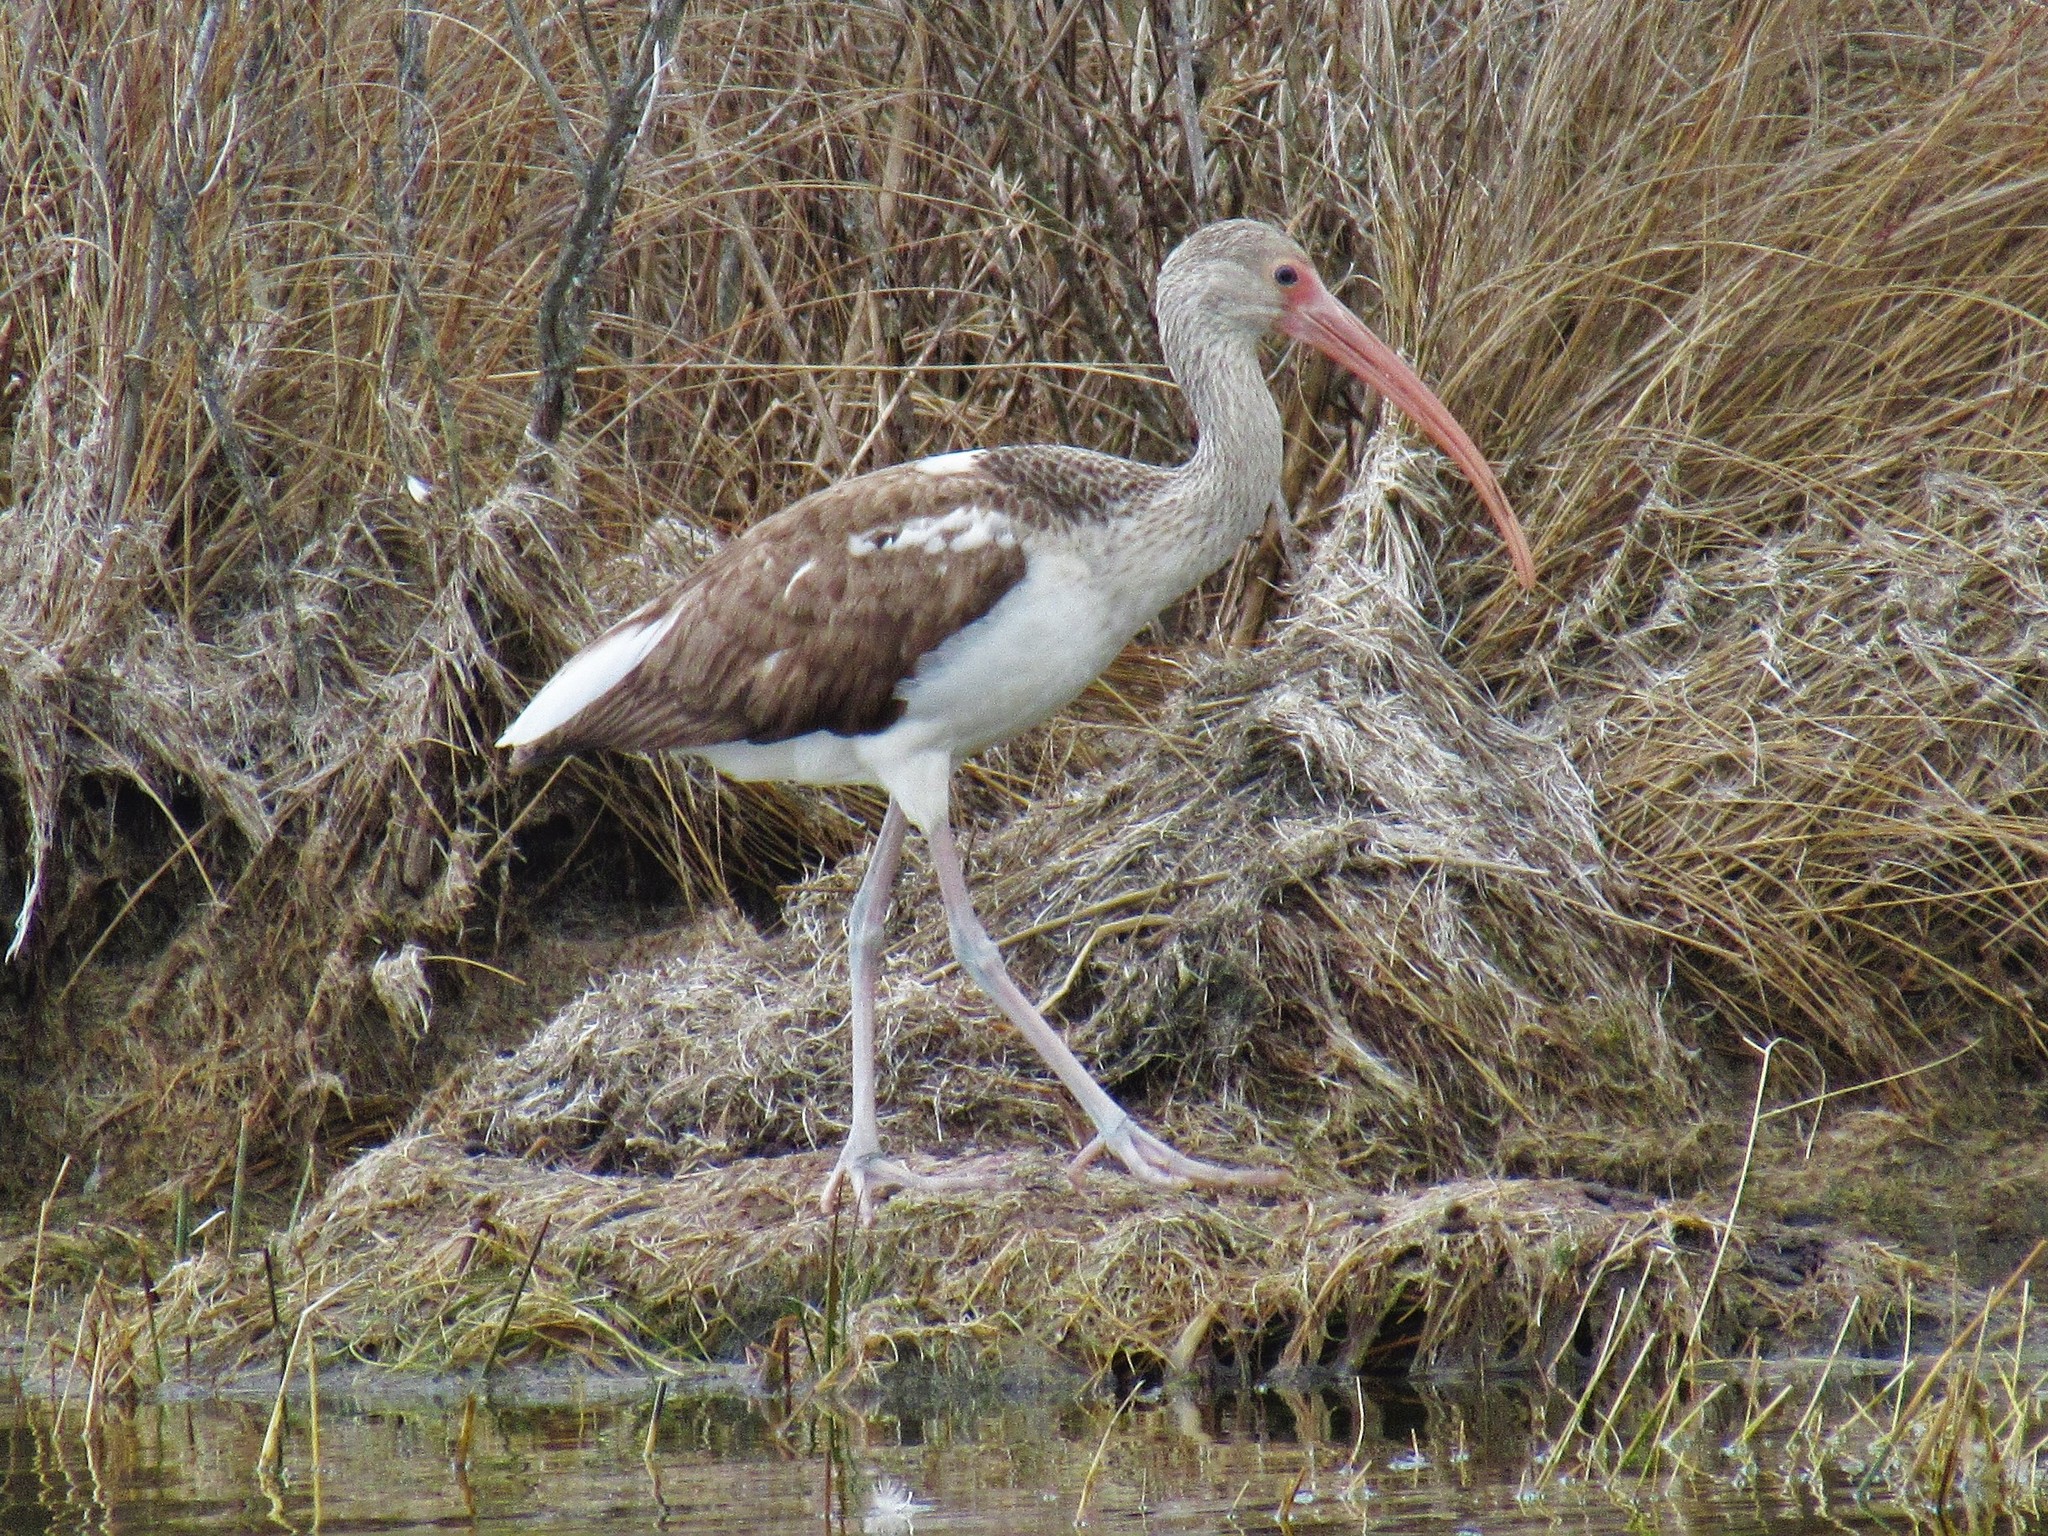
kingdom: Animalia
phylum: Chordata
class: Aves
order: Pelecaniformes
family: Threskiornithidae
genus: Eudocimus
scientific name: Eudocimus albus
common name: White ibis
